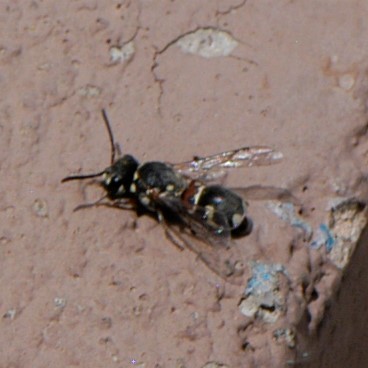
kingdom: Animalia
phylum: Arthropoda
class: Insecta
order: Hymenoptera
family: Eumenidae
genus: Maricopodynerus
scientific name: Maricopodynerus optimus
